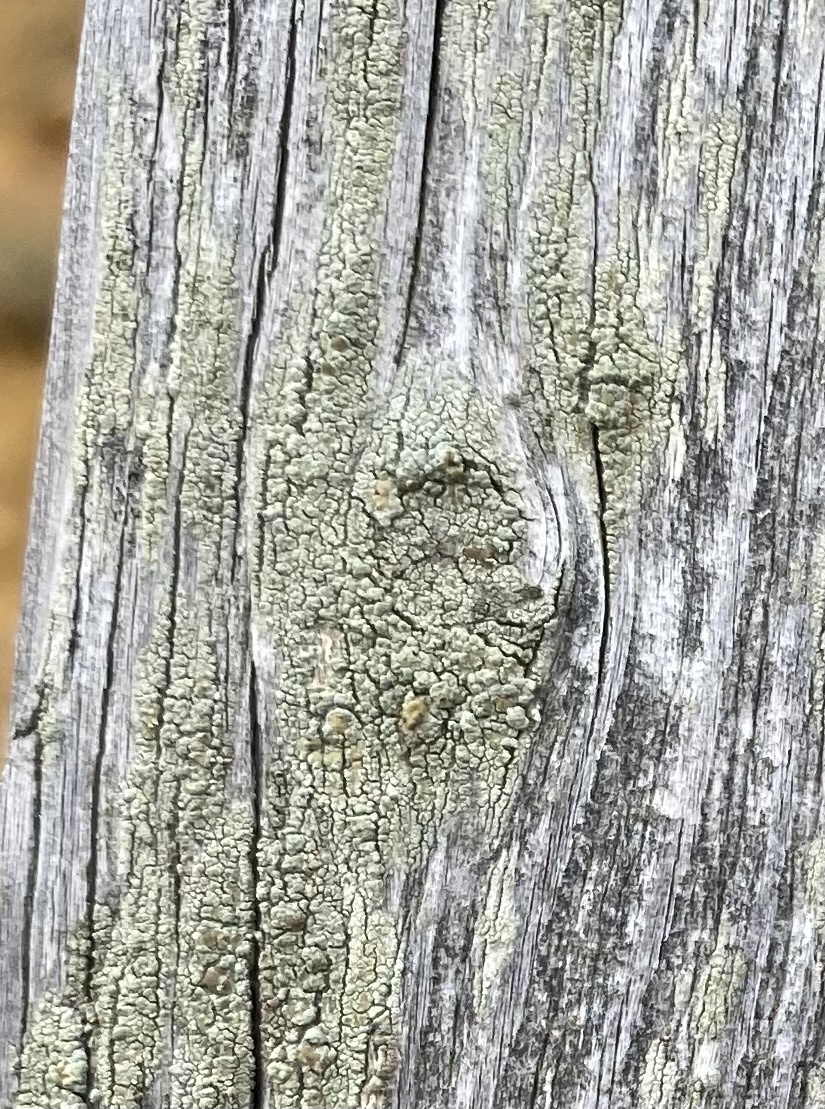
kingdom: Fungi
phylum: Ascomycota
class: Lecanoromycetes
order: Lecanorales
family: Lecanoraceae
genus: Lecanora
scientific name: Lecanora
